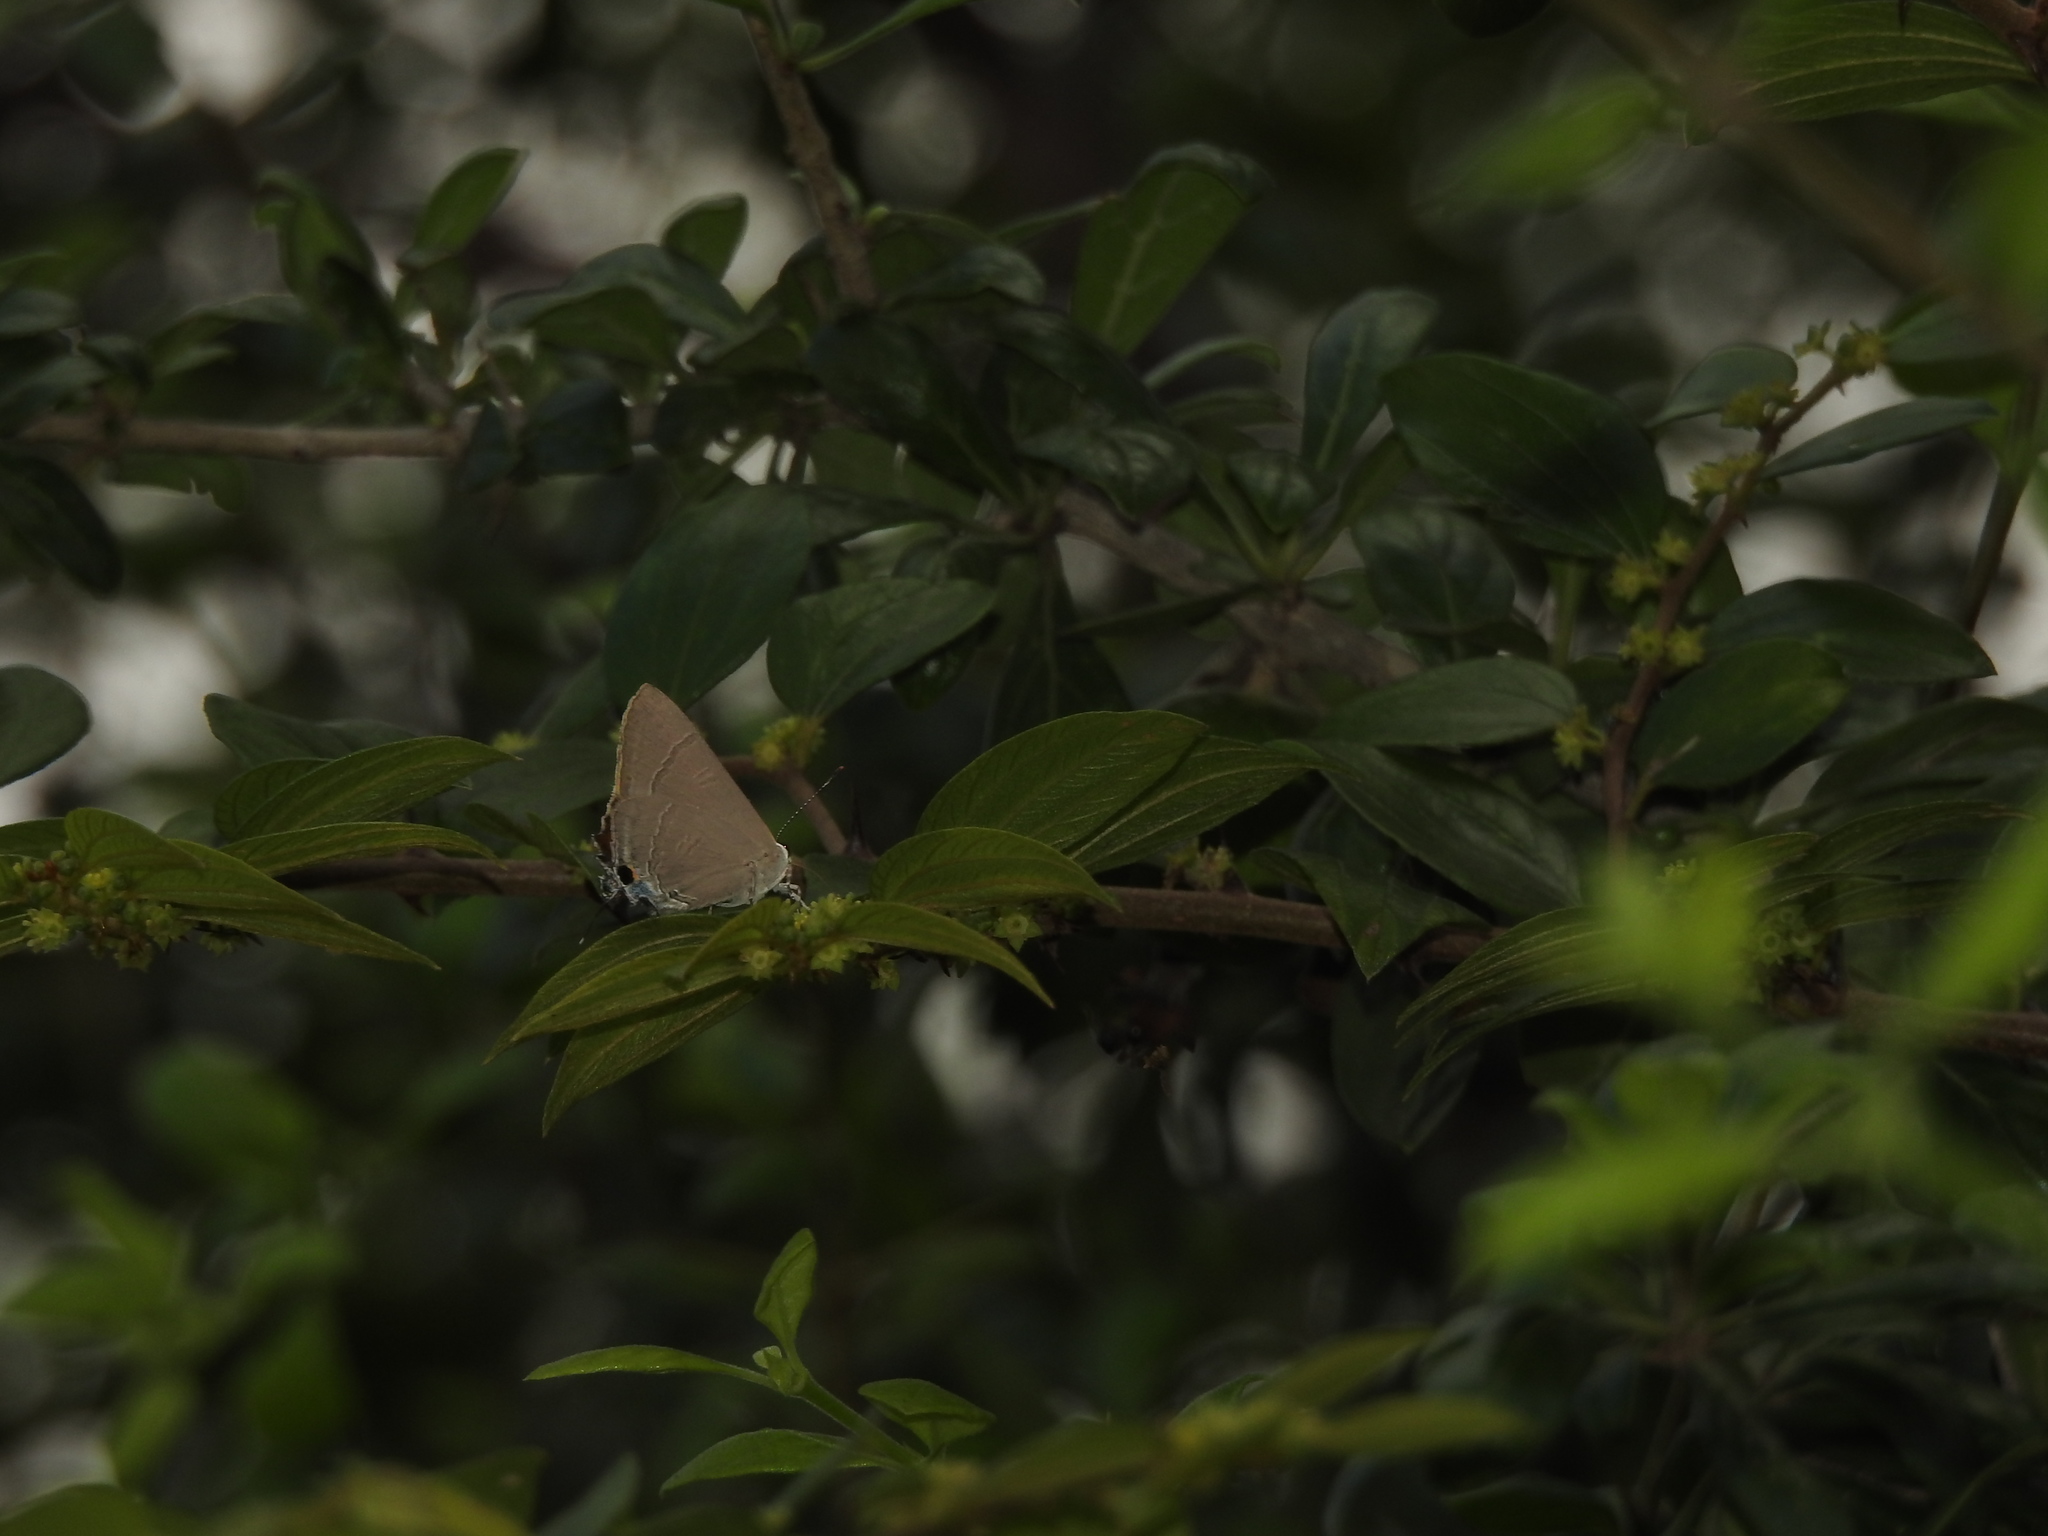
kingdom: Animalia
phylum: Arthropoda
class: Insecta
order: Lepidoptera
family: Lycaenidae
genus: Rapala
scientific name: Rapala manea
